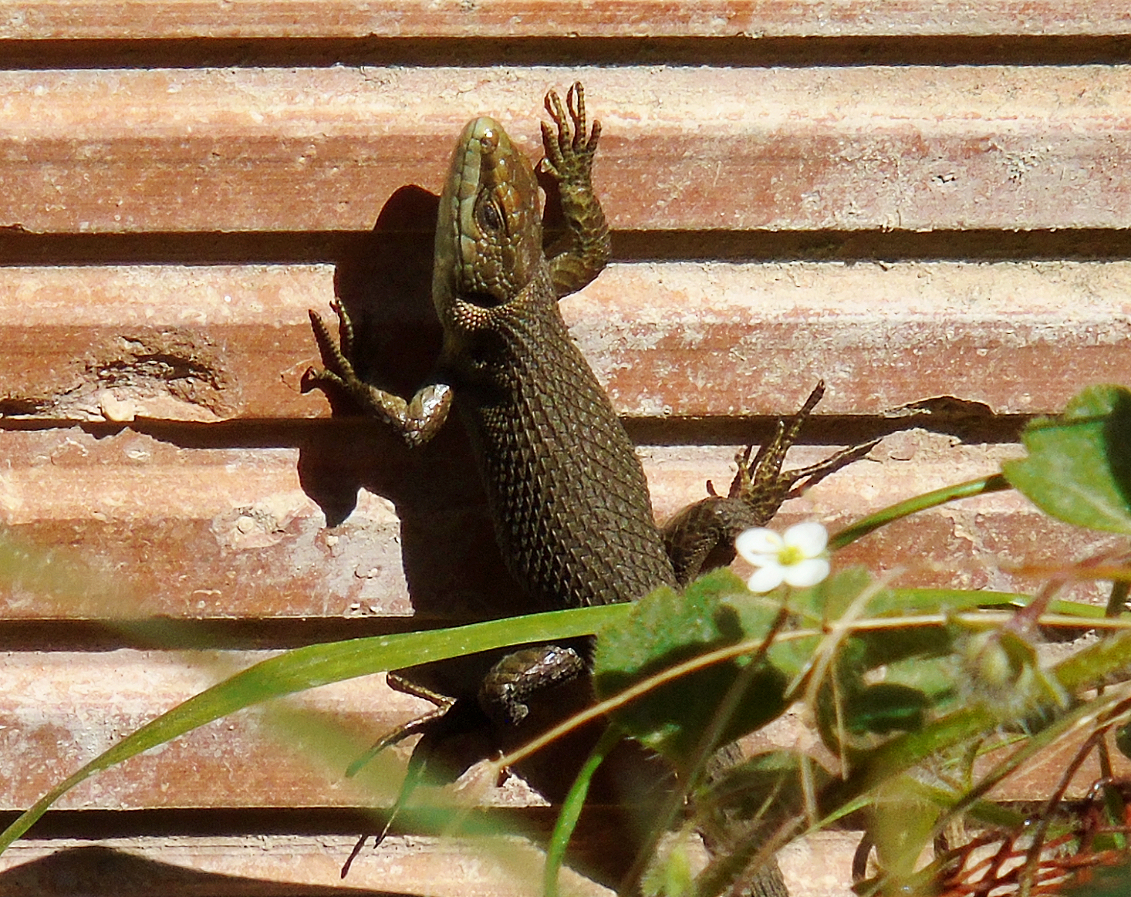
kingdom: Animalia
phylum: Chordata
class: Squamata
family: Lacertidae
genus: Algyroides
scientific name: Algyroides moreoticus
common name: Greek algyroides
